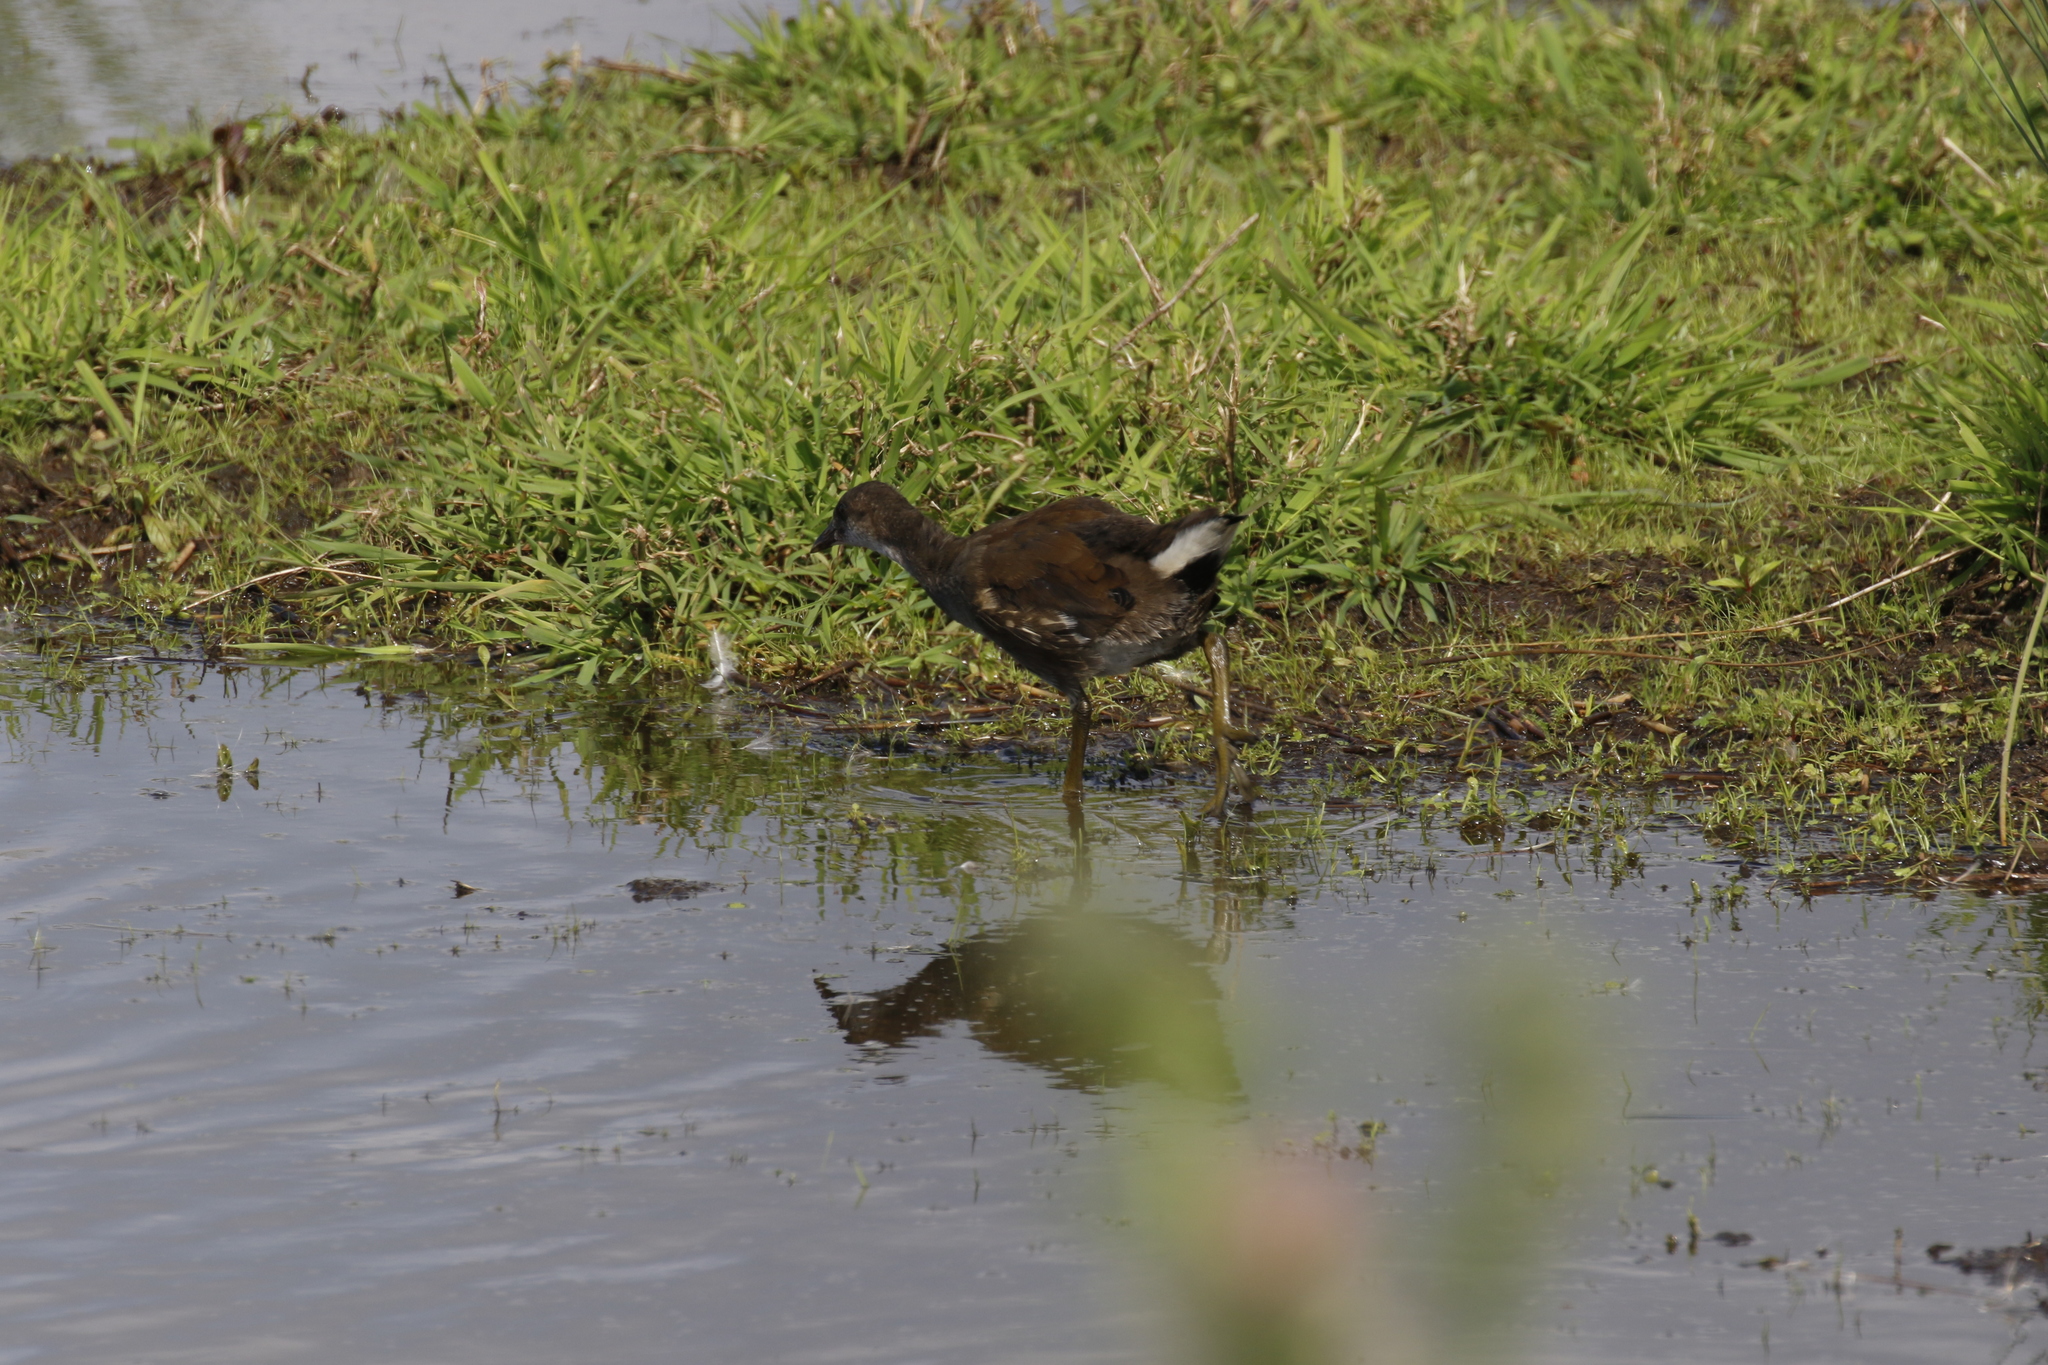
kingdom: Animalia
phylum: Chordata
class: Aves
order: Gruiformes
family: Rallidae
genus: Gallinula
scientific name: Gallinula chloropus
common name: Common moorhen
